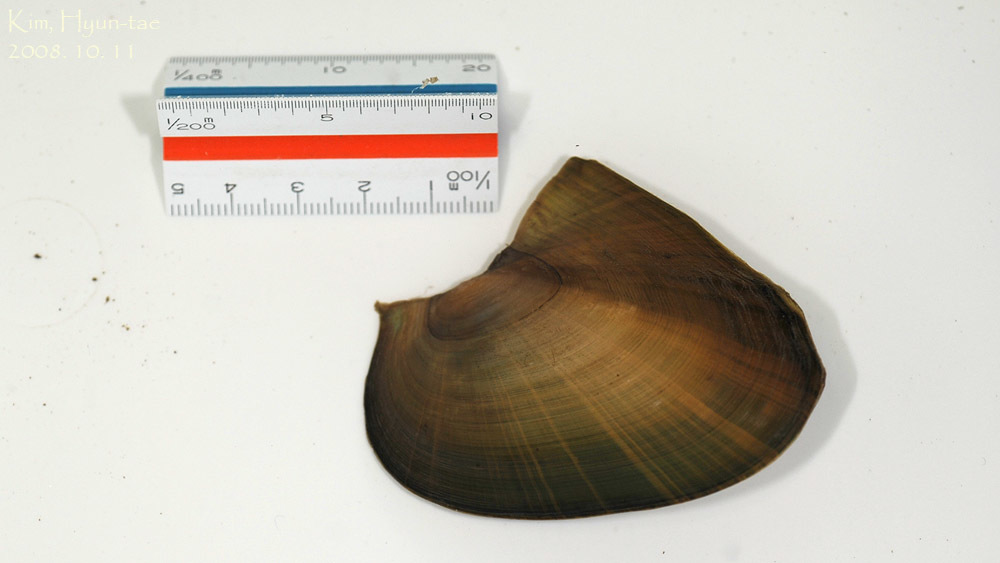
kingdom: Animalia
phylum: Mollusca
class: Bivalvia
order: Unionida
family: Unionidae
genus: Cristaria
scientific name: Cristaria plicata
